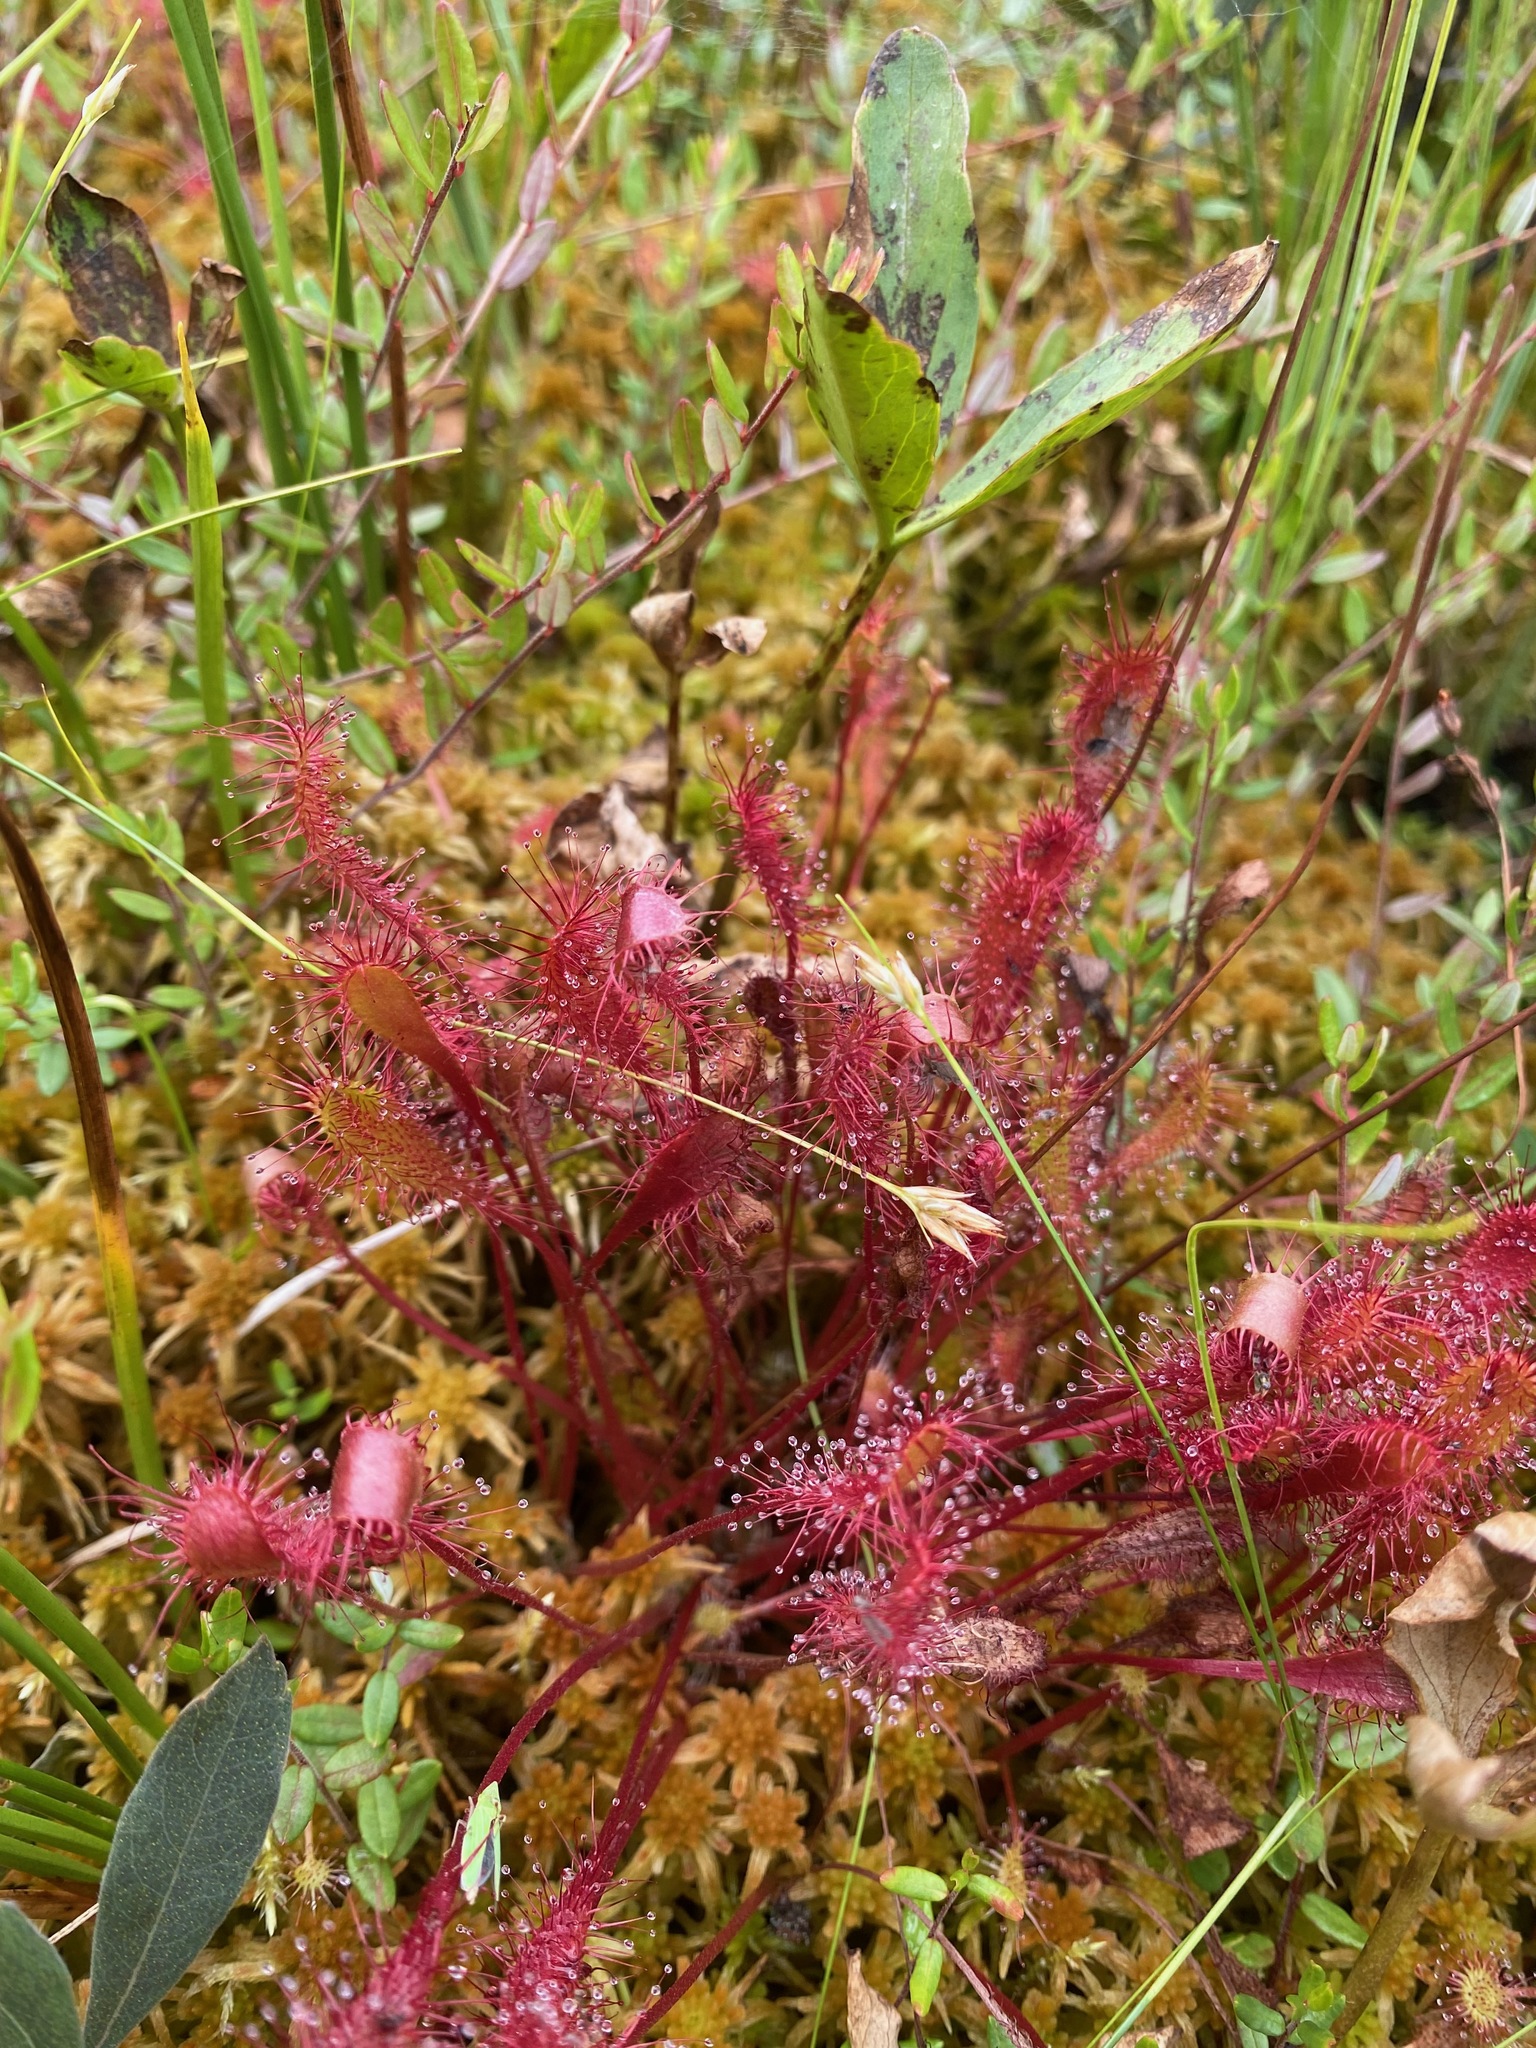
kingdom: Plantae
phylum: Tracheophyta
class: Magnoliopsida
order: Caryophyllales
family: Droseraceae
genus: Drosera
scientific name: Drosera anglica
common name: Great sundew
